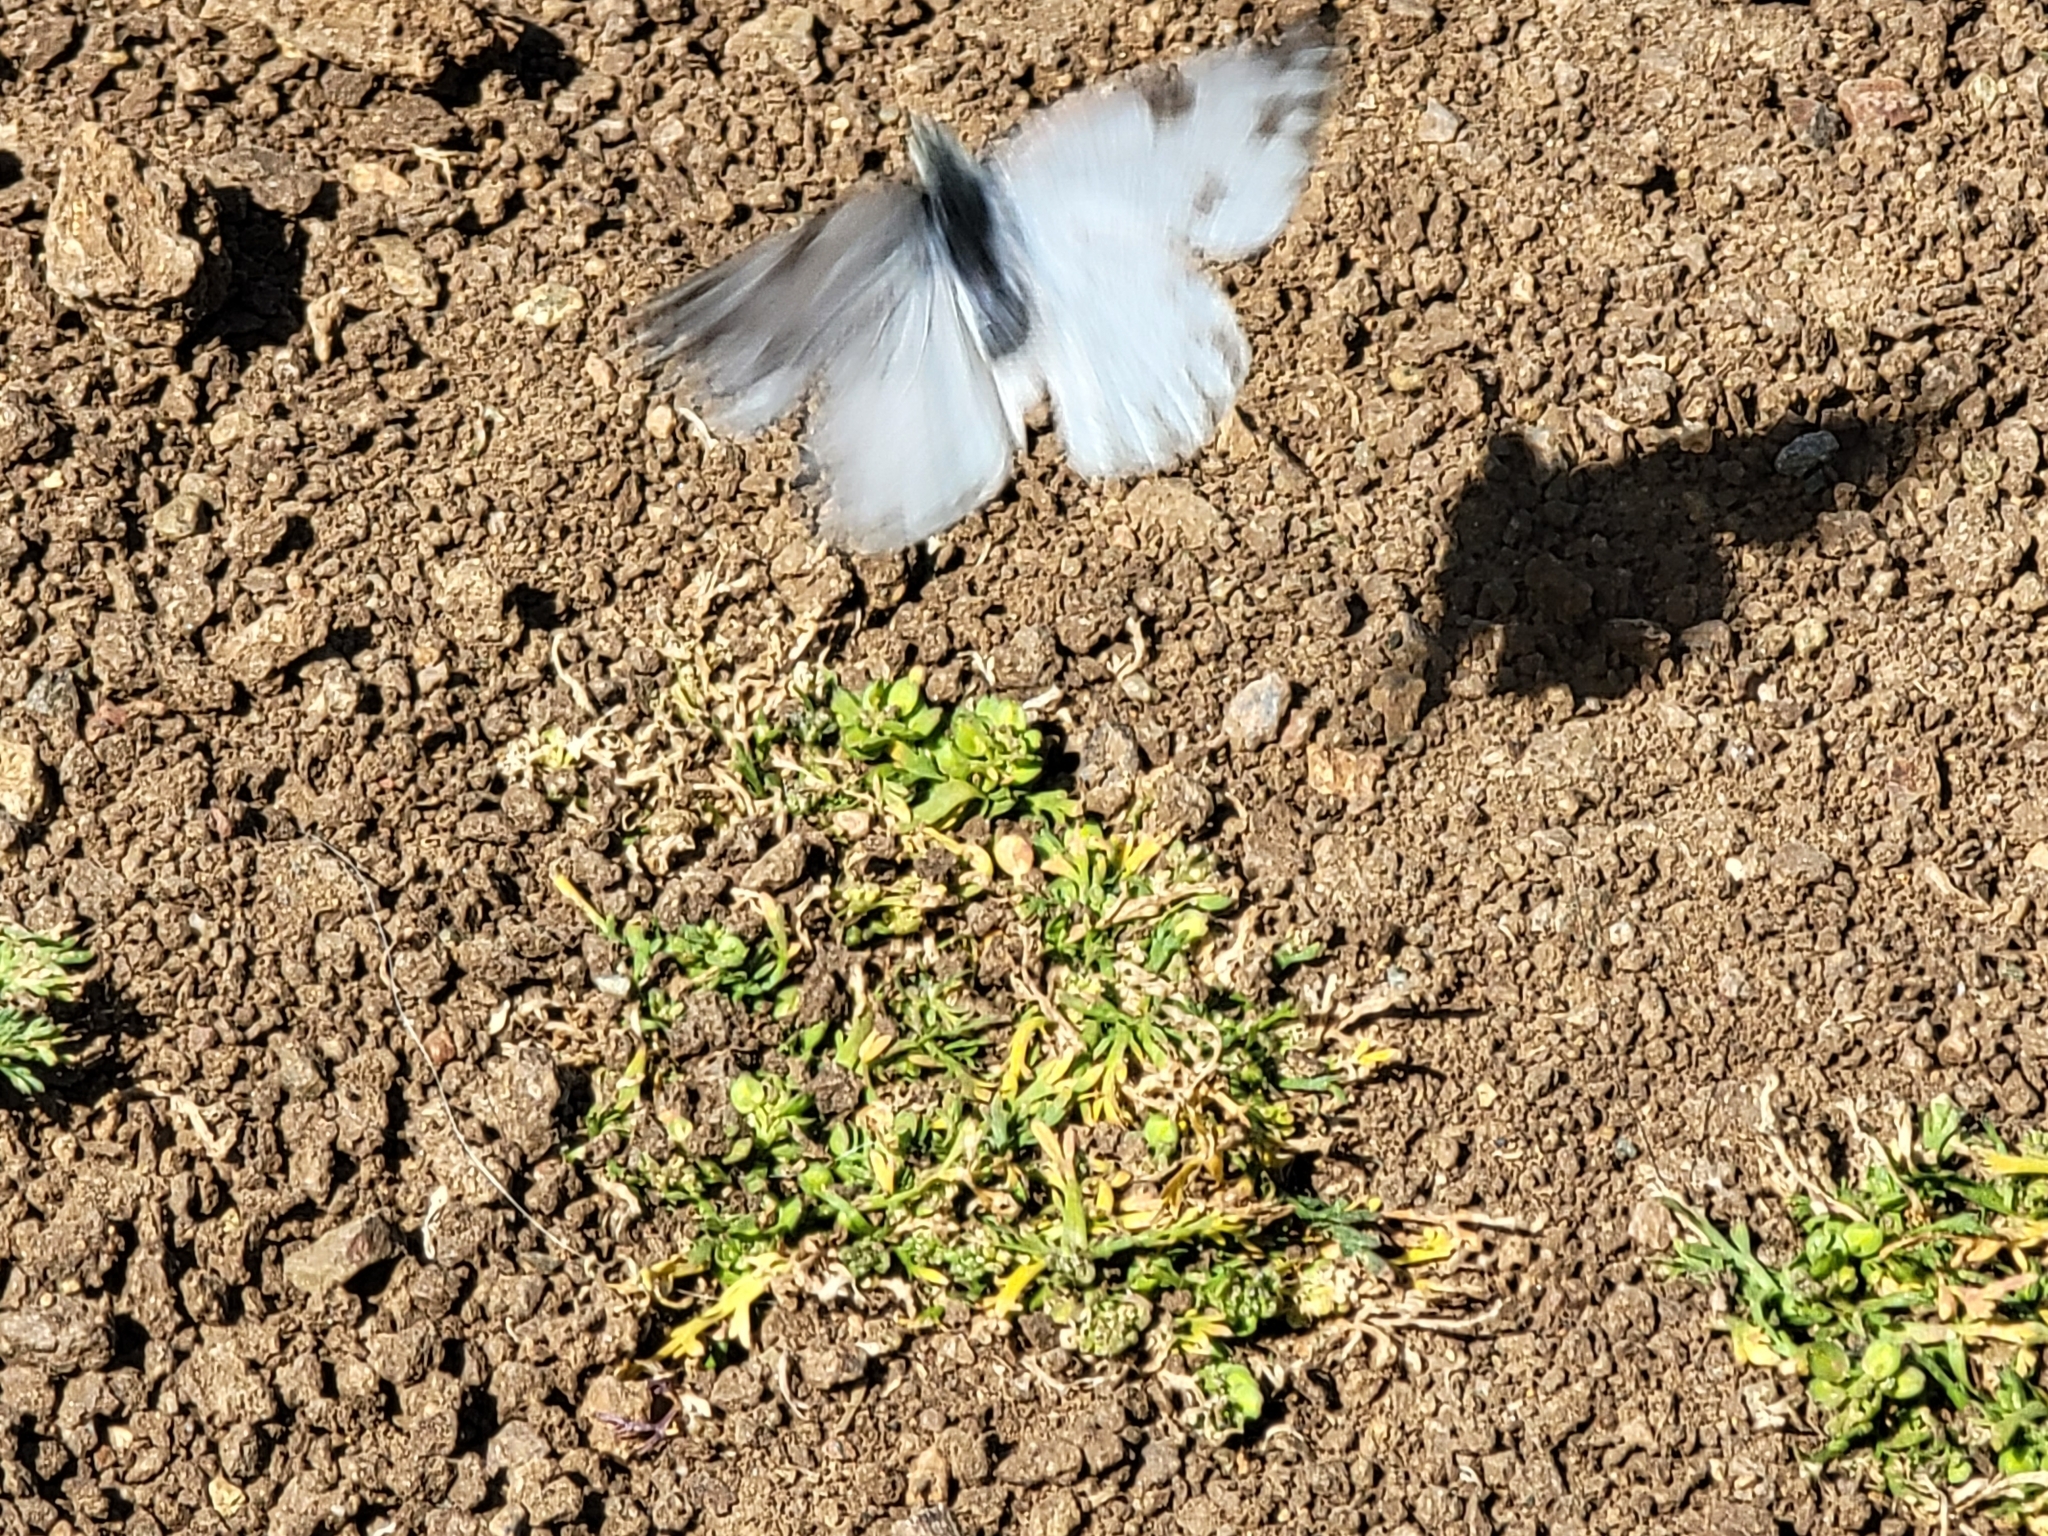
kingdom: Animalia
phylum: Arthropoda
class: Insecta
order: Lepidoptera
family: Pieridae
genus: Pontia
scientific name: Pontia protodice
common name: Checkered white
